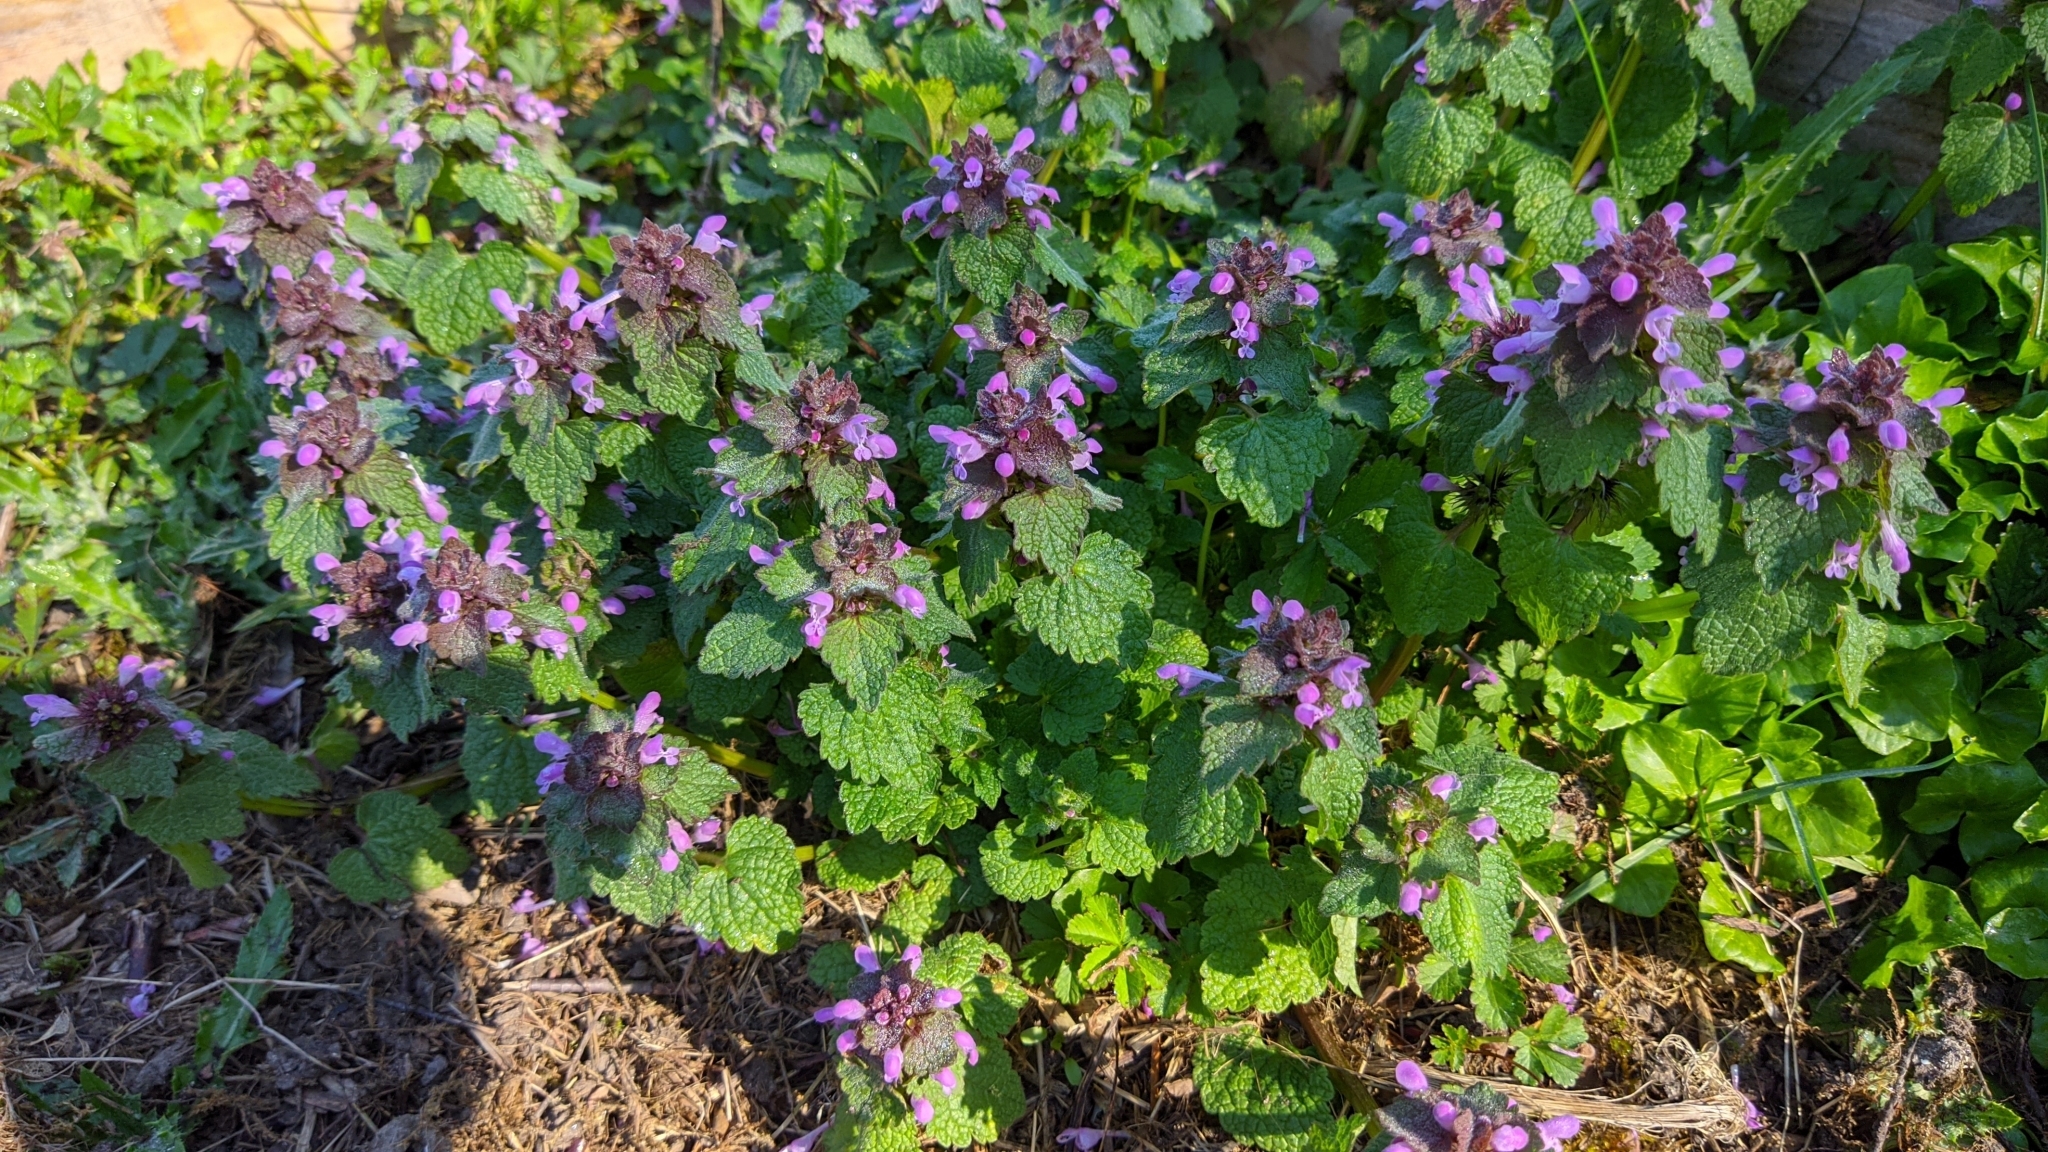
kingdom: Plantae
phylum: Tracheophyta
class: Magnoliopsida
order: Lamiales
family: Lamiaceae
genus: Lamium
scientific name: Lamium purpureum
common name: Red dead-nettle
